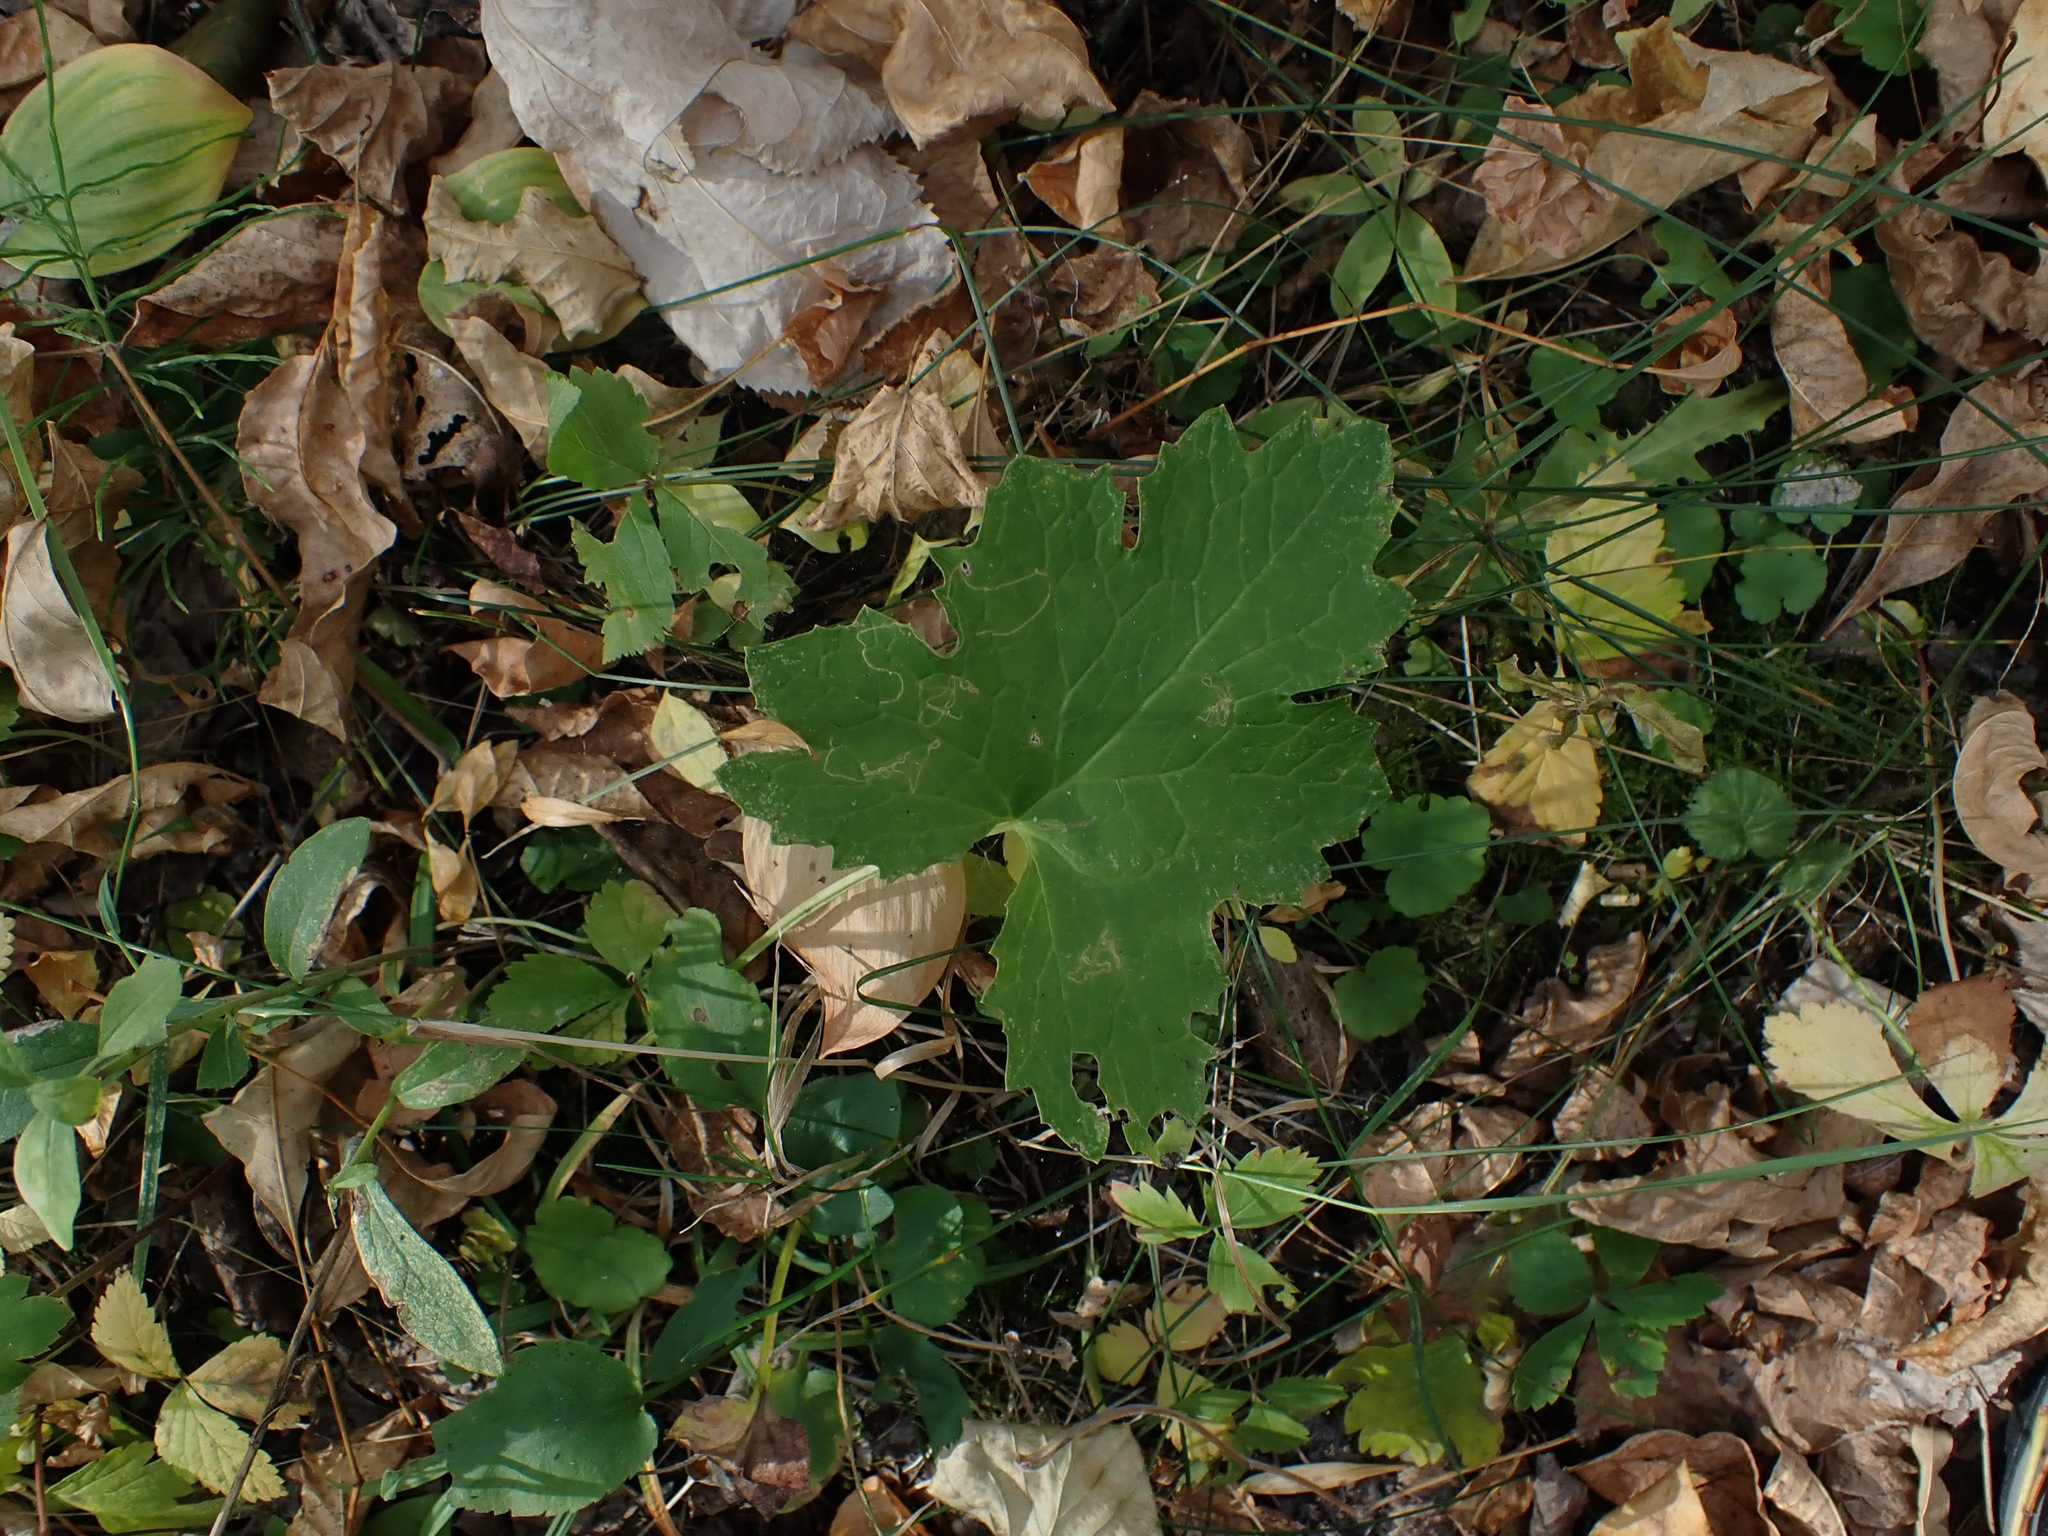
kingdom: Plantae
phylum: Tracheophyta
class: Magnoliopsida
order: Asterales
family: Asteraceae
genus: Petasites
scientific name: Petasites frigidus
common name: Arctic butterbur
